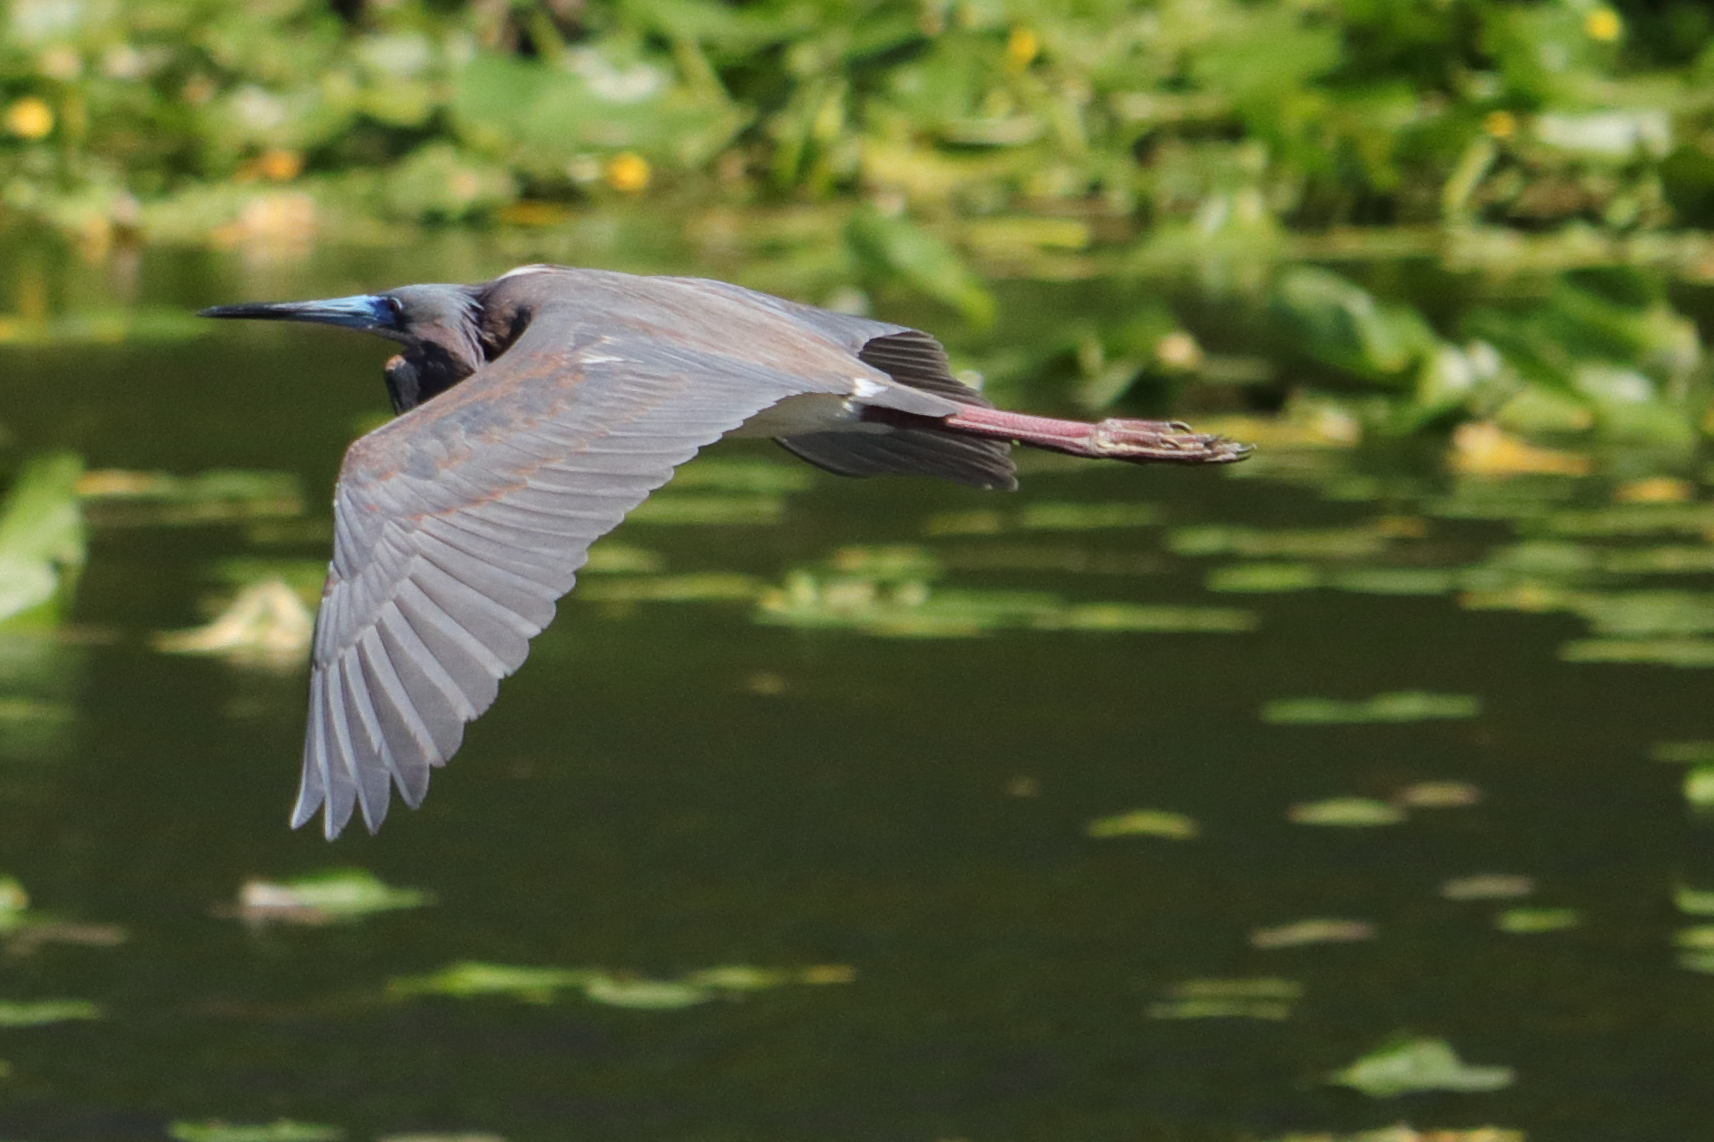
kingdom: Animalia
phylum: Chordata
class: Aves
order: Pelecaniformes
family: Ardeidae
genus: Egretta
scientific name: Egretta tricolor
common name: Tricolored heron
